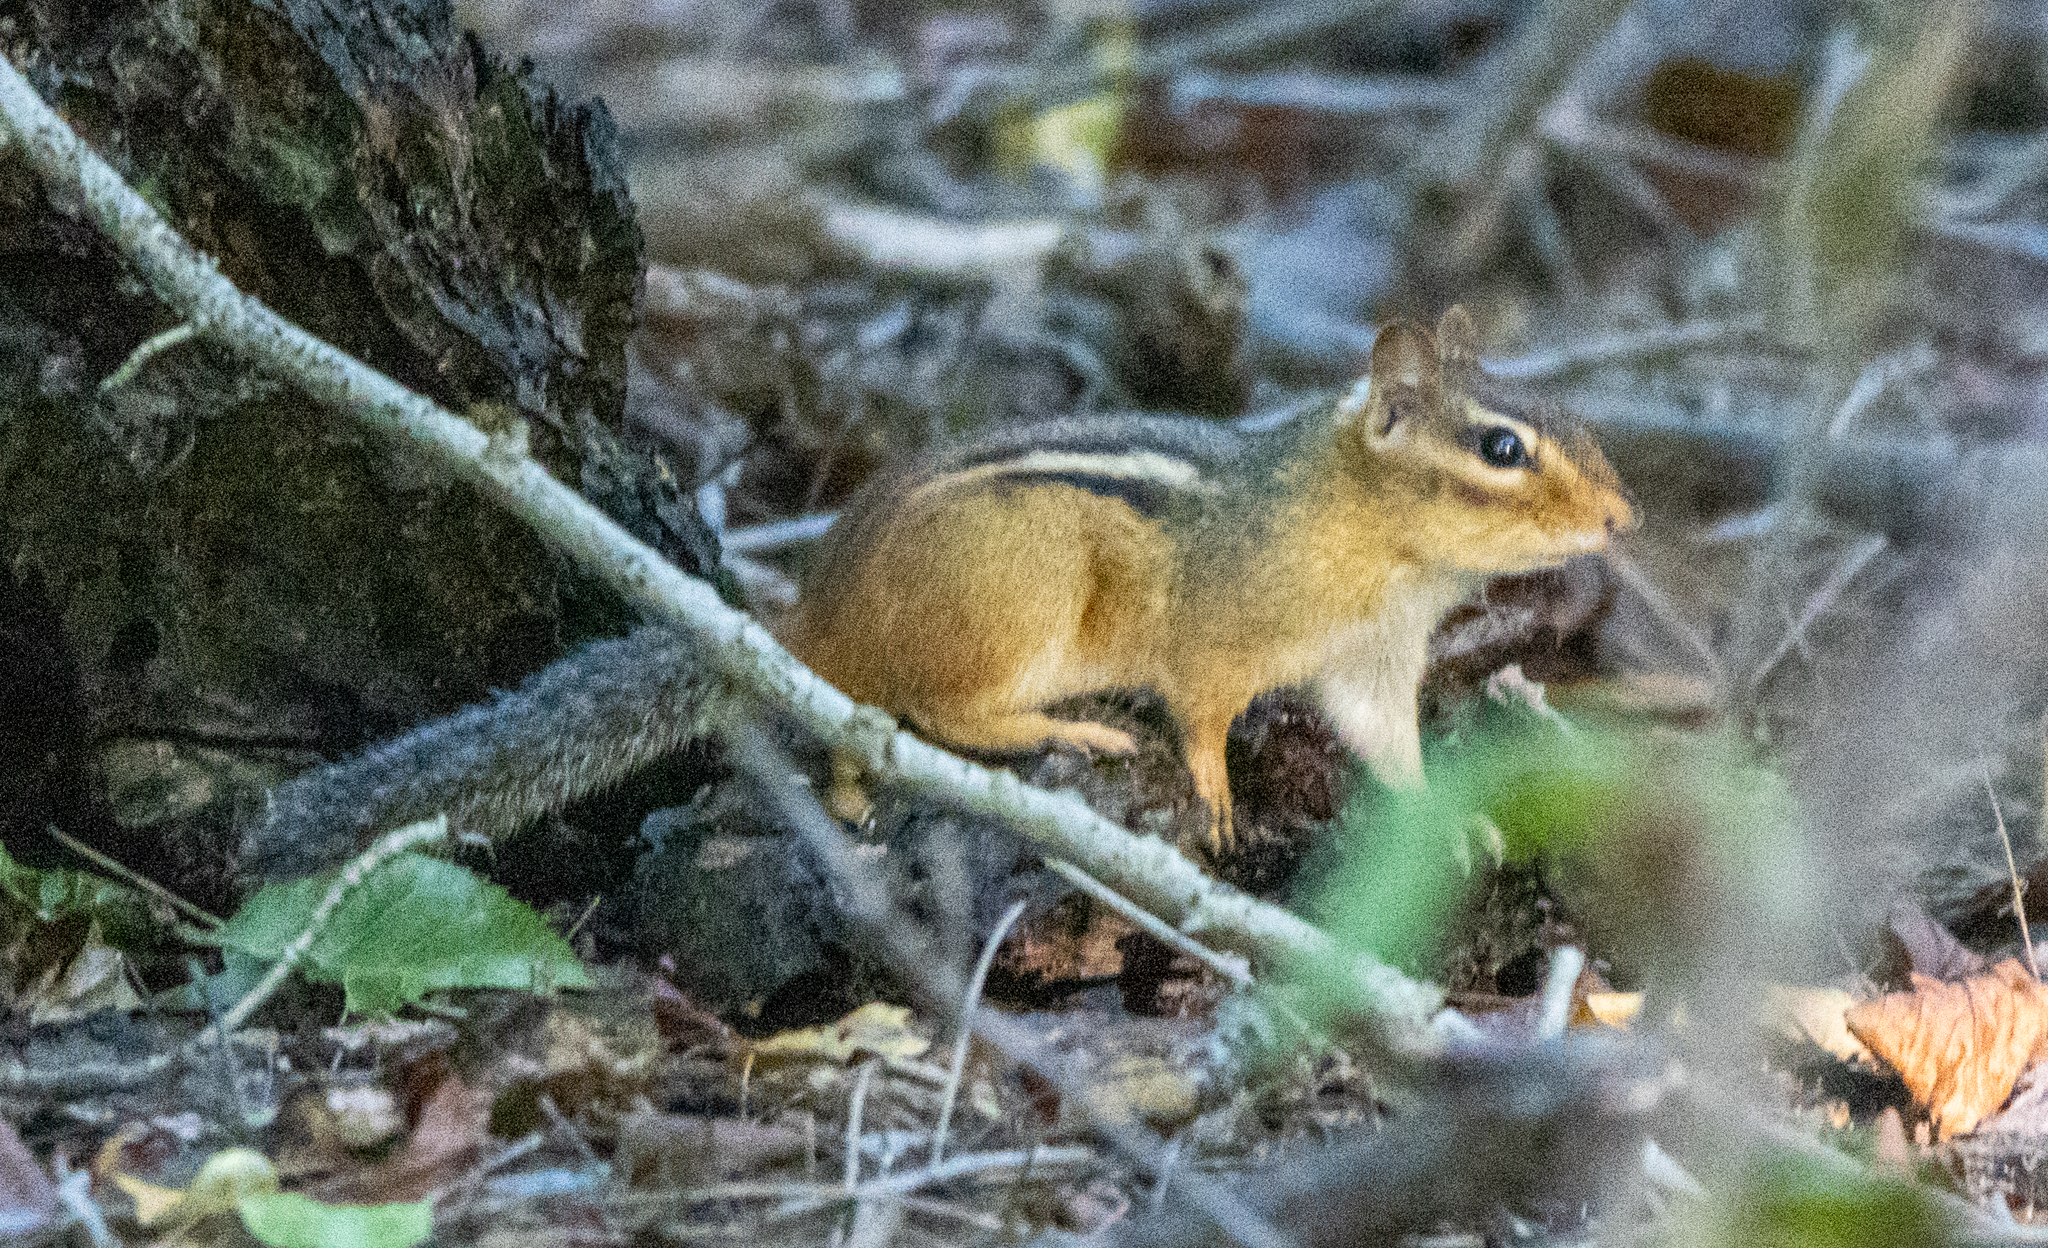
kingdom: Animalia
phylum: Chordata
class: Mammalia
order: Rodentia
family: Sciuridae
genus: Tamias
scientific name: Tamias striatus
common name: Eastern chipmunk
